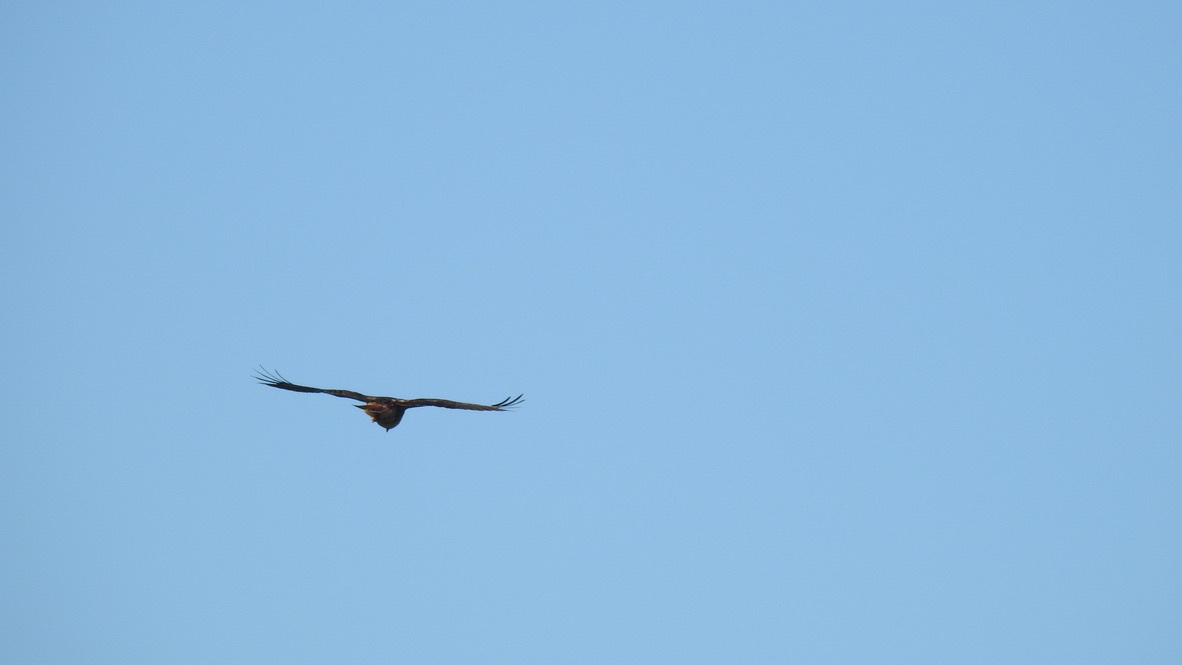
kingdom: Animalia
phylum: Chordata
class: Aves
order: Accipitriformes
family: Accipitridae
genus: Buteo
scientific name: Buteo jamaicensis
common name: Red-tailed hawk
